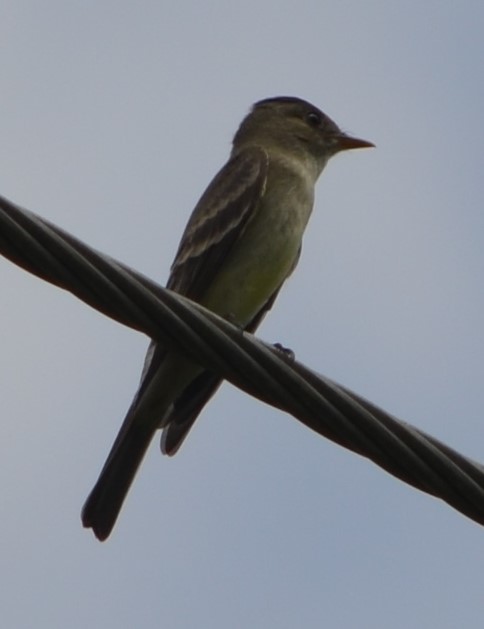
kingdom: Animalia
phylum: Chordata
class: Aves
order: Passeriformes
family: Tyrannidae
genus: Contopus
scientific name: Contopus virens
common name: Eastern wood-pewee
